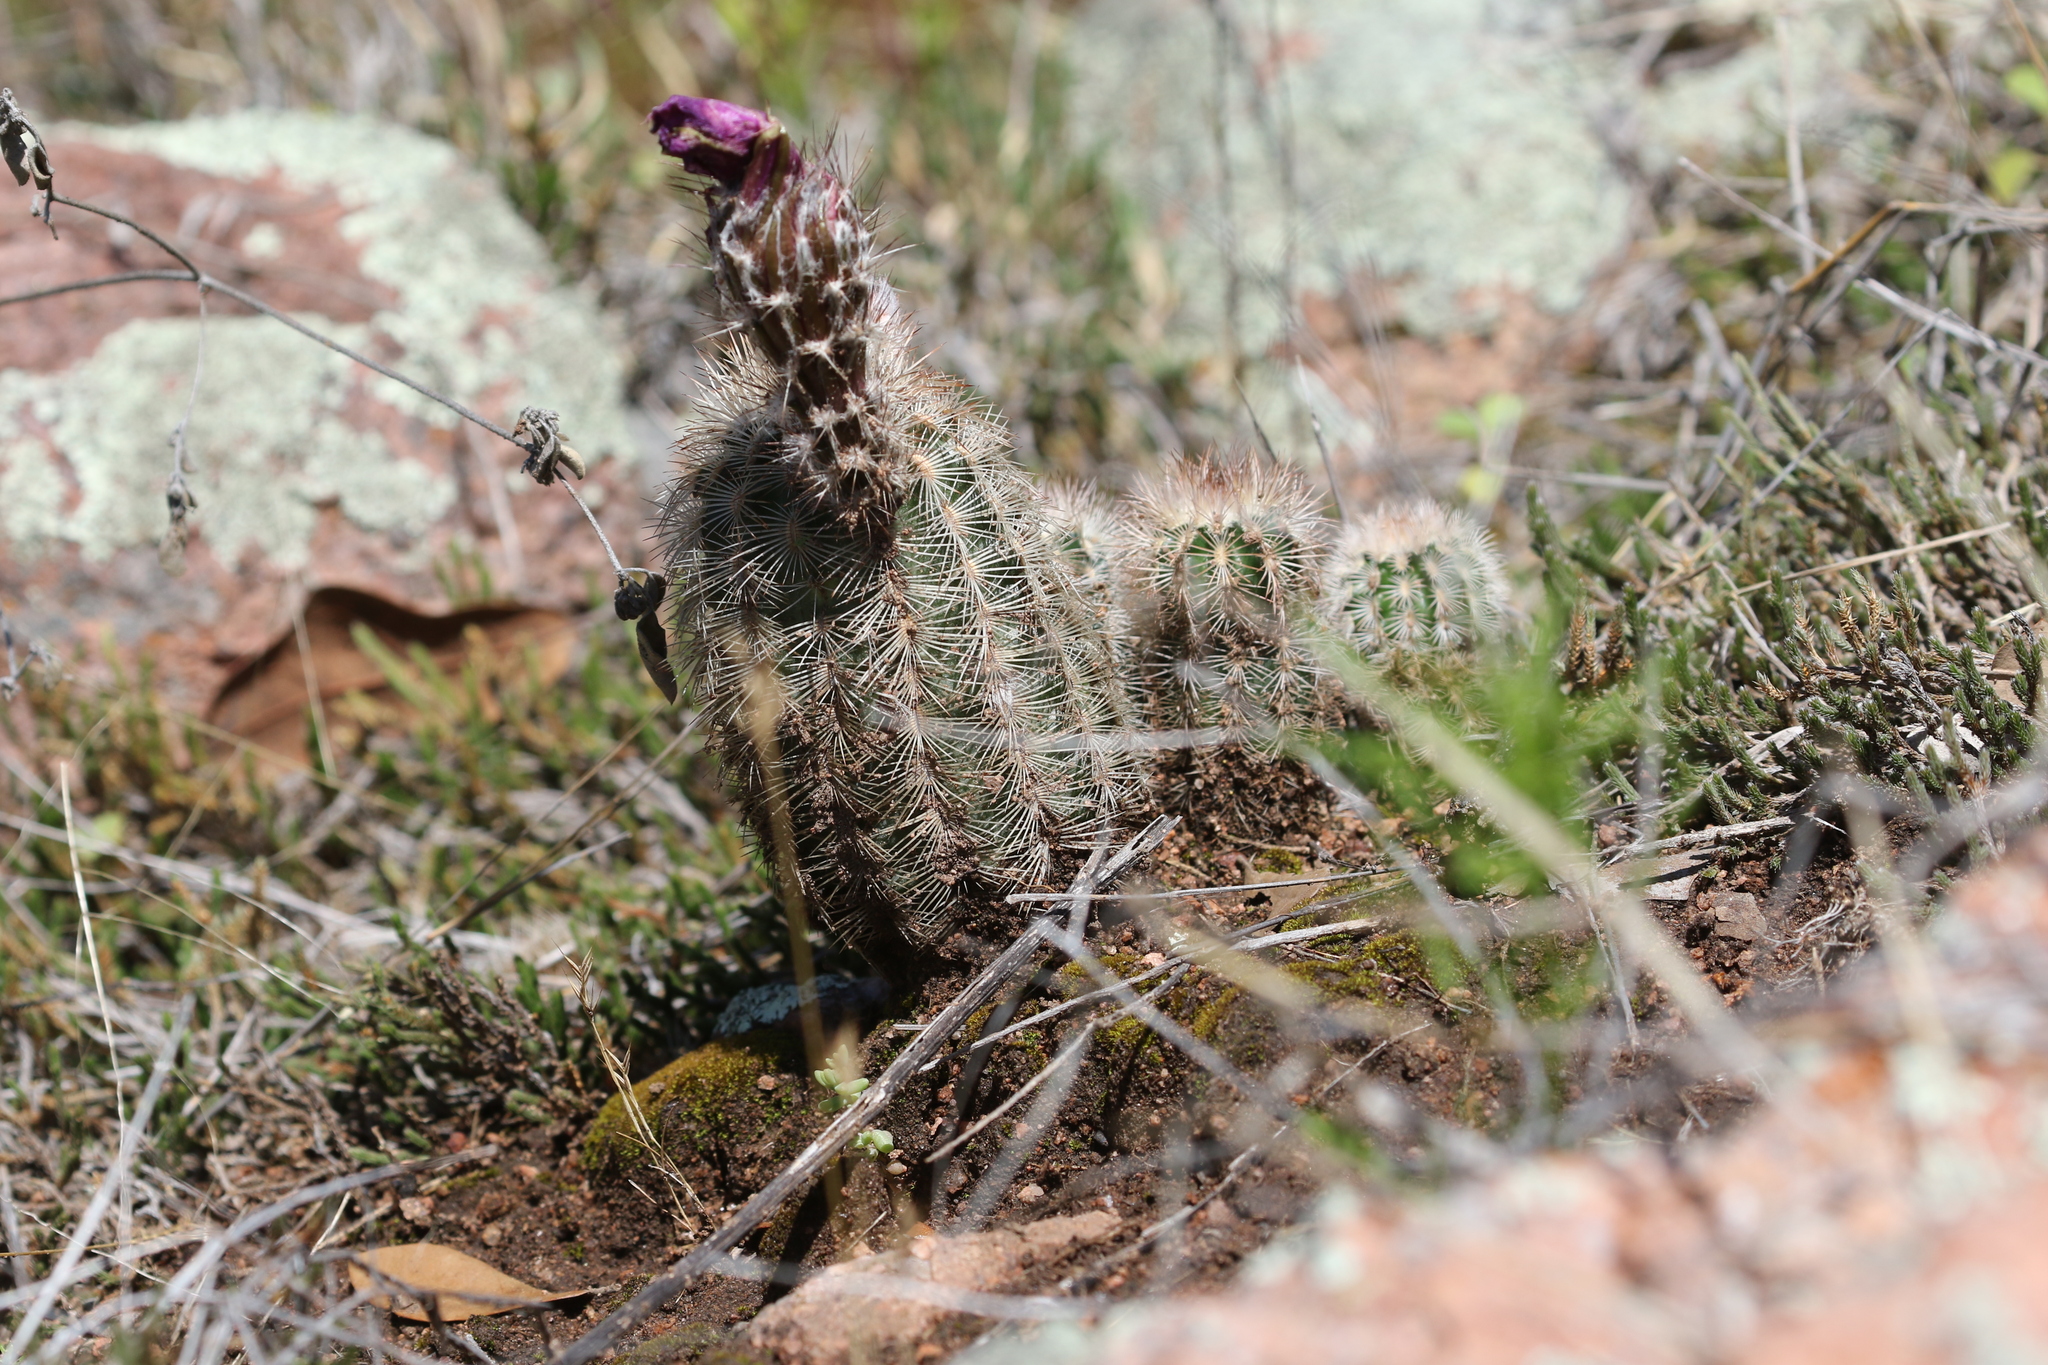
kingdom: Plantae
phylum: Tracheophyta
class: Magnoliopsida
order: Caryophyllales
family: Cactaceae
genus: Echinocereus
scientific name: Echinocereus reichenbachii
